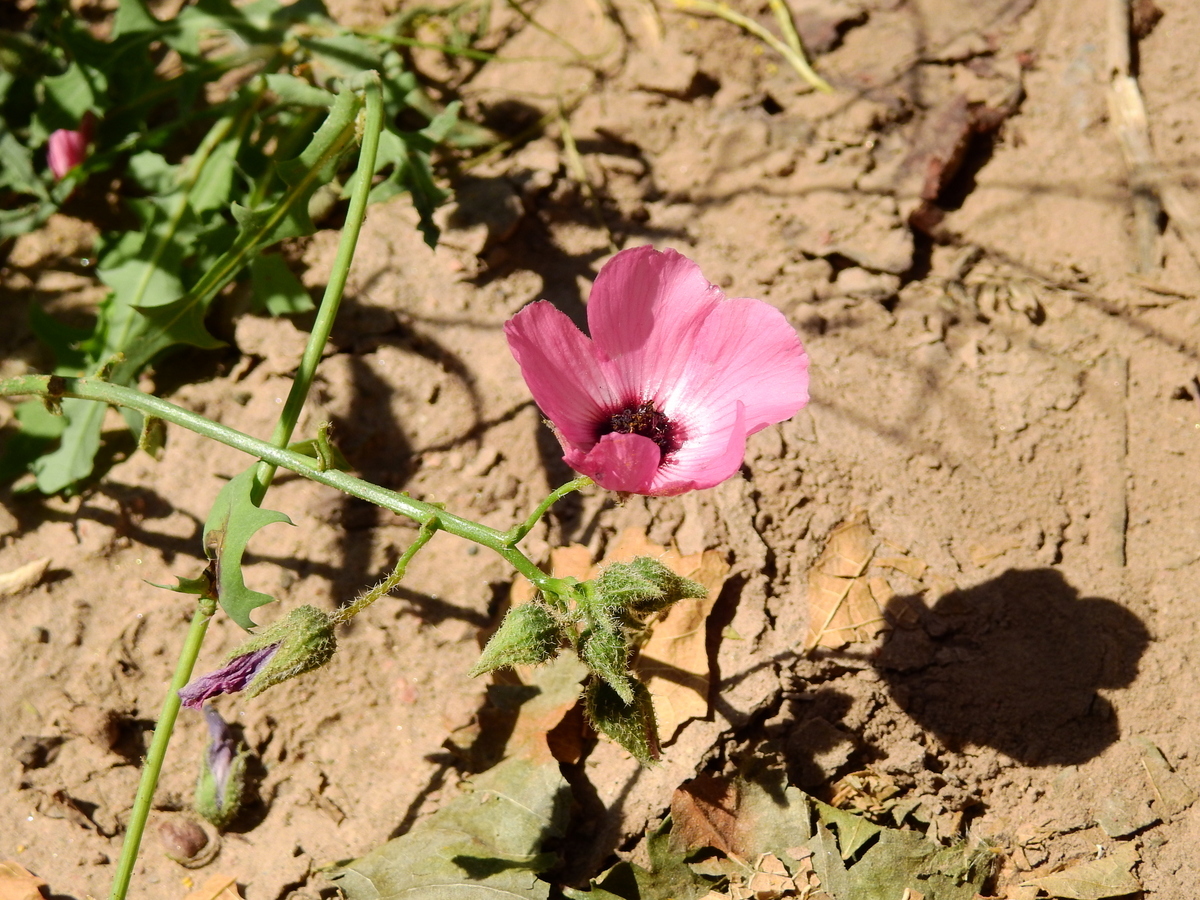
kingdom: Plantae
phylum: Tracheophyta
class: Magnoliopsida
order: Malvales
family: Malvaceae
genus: Lecanophora
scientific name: Lecanophora heterophylla
